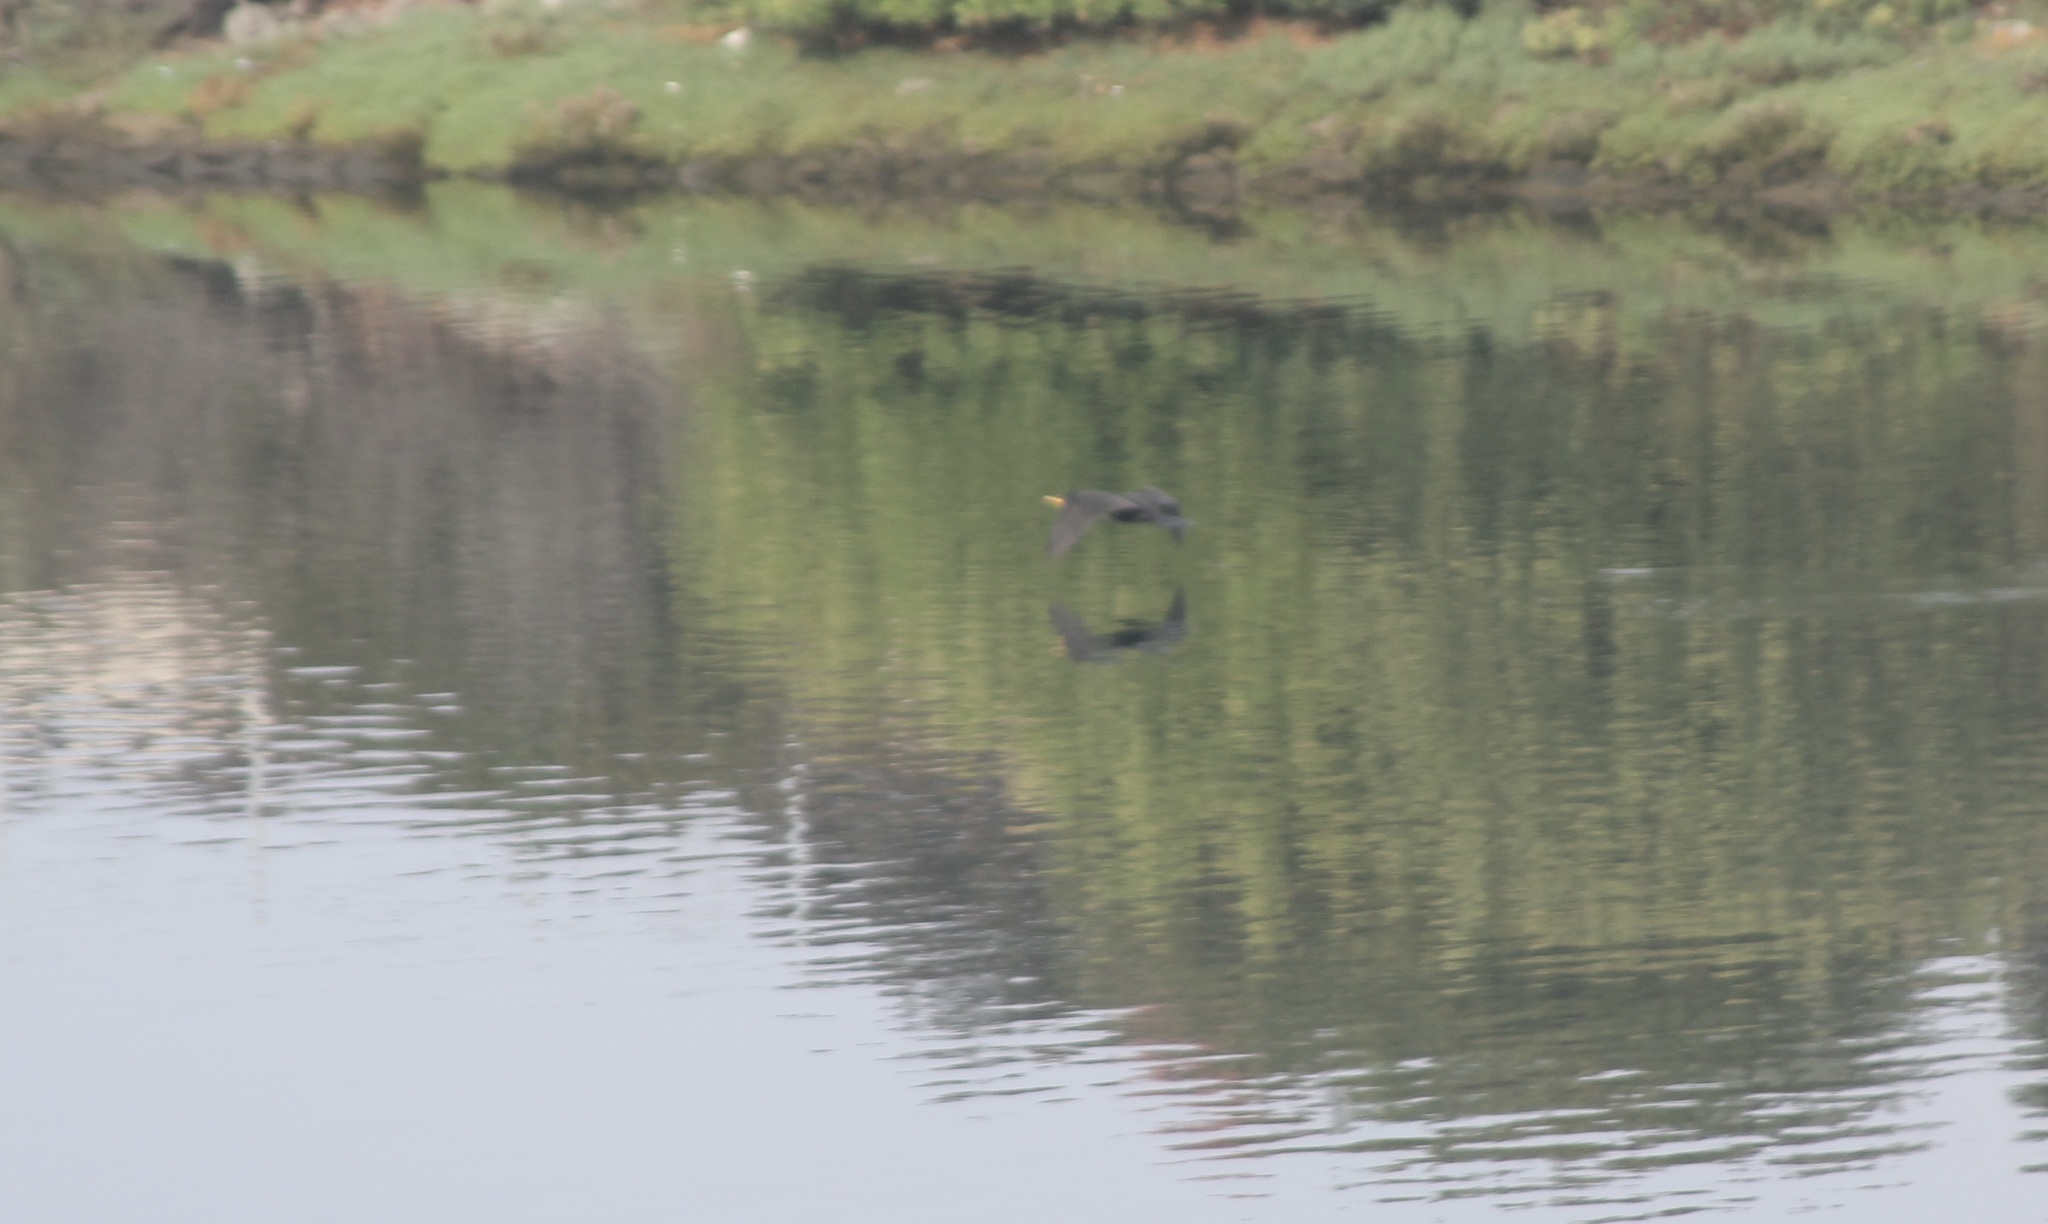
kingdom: Animalia
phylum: Chordata
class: Aves
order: Suliformes
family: Phalacrocoracidae
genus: Phalacrocorax
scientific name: Phalacrocorax auritus
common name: Double-crested cormorant
